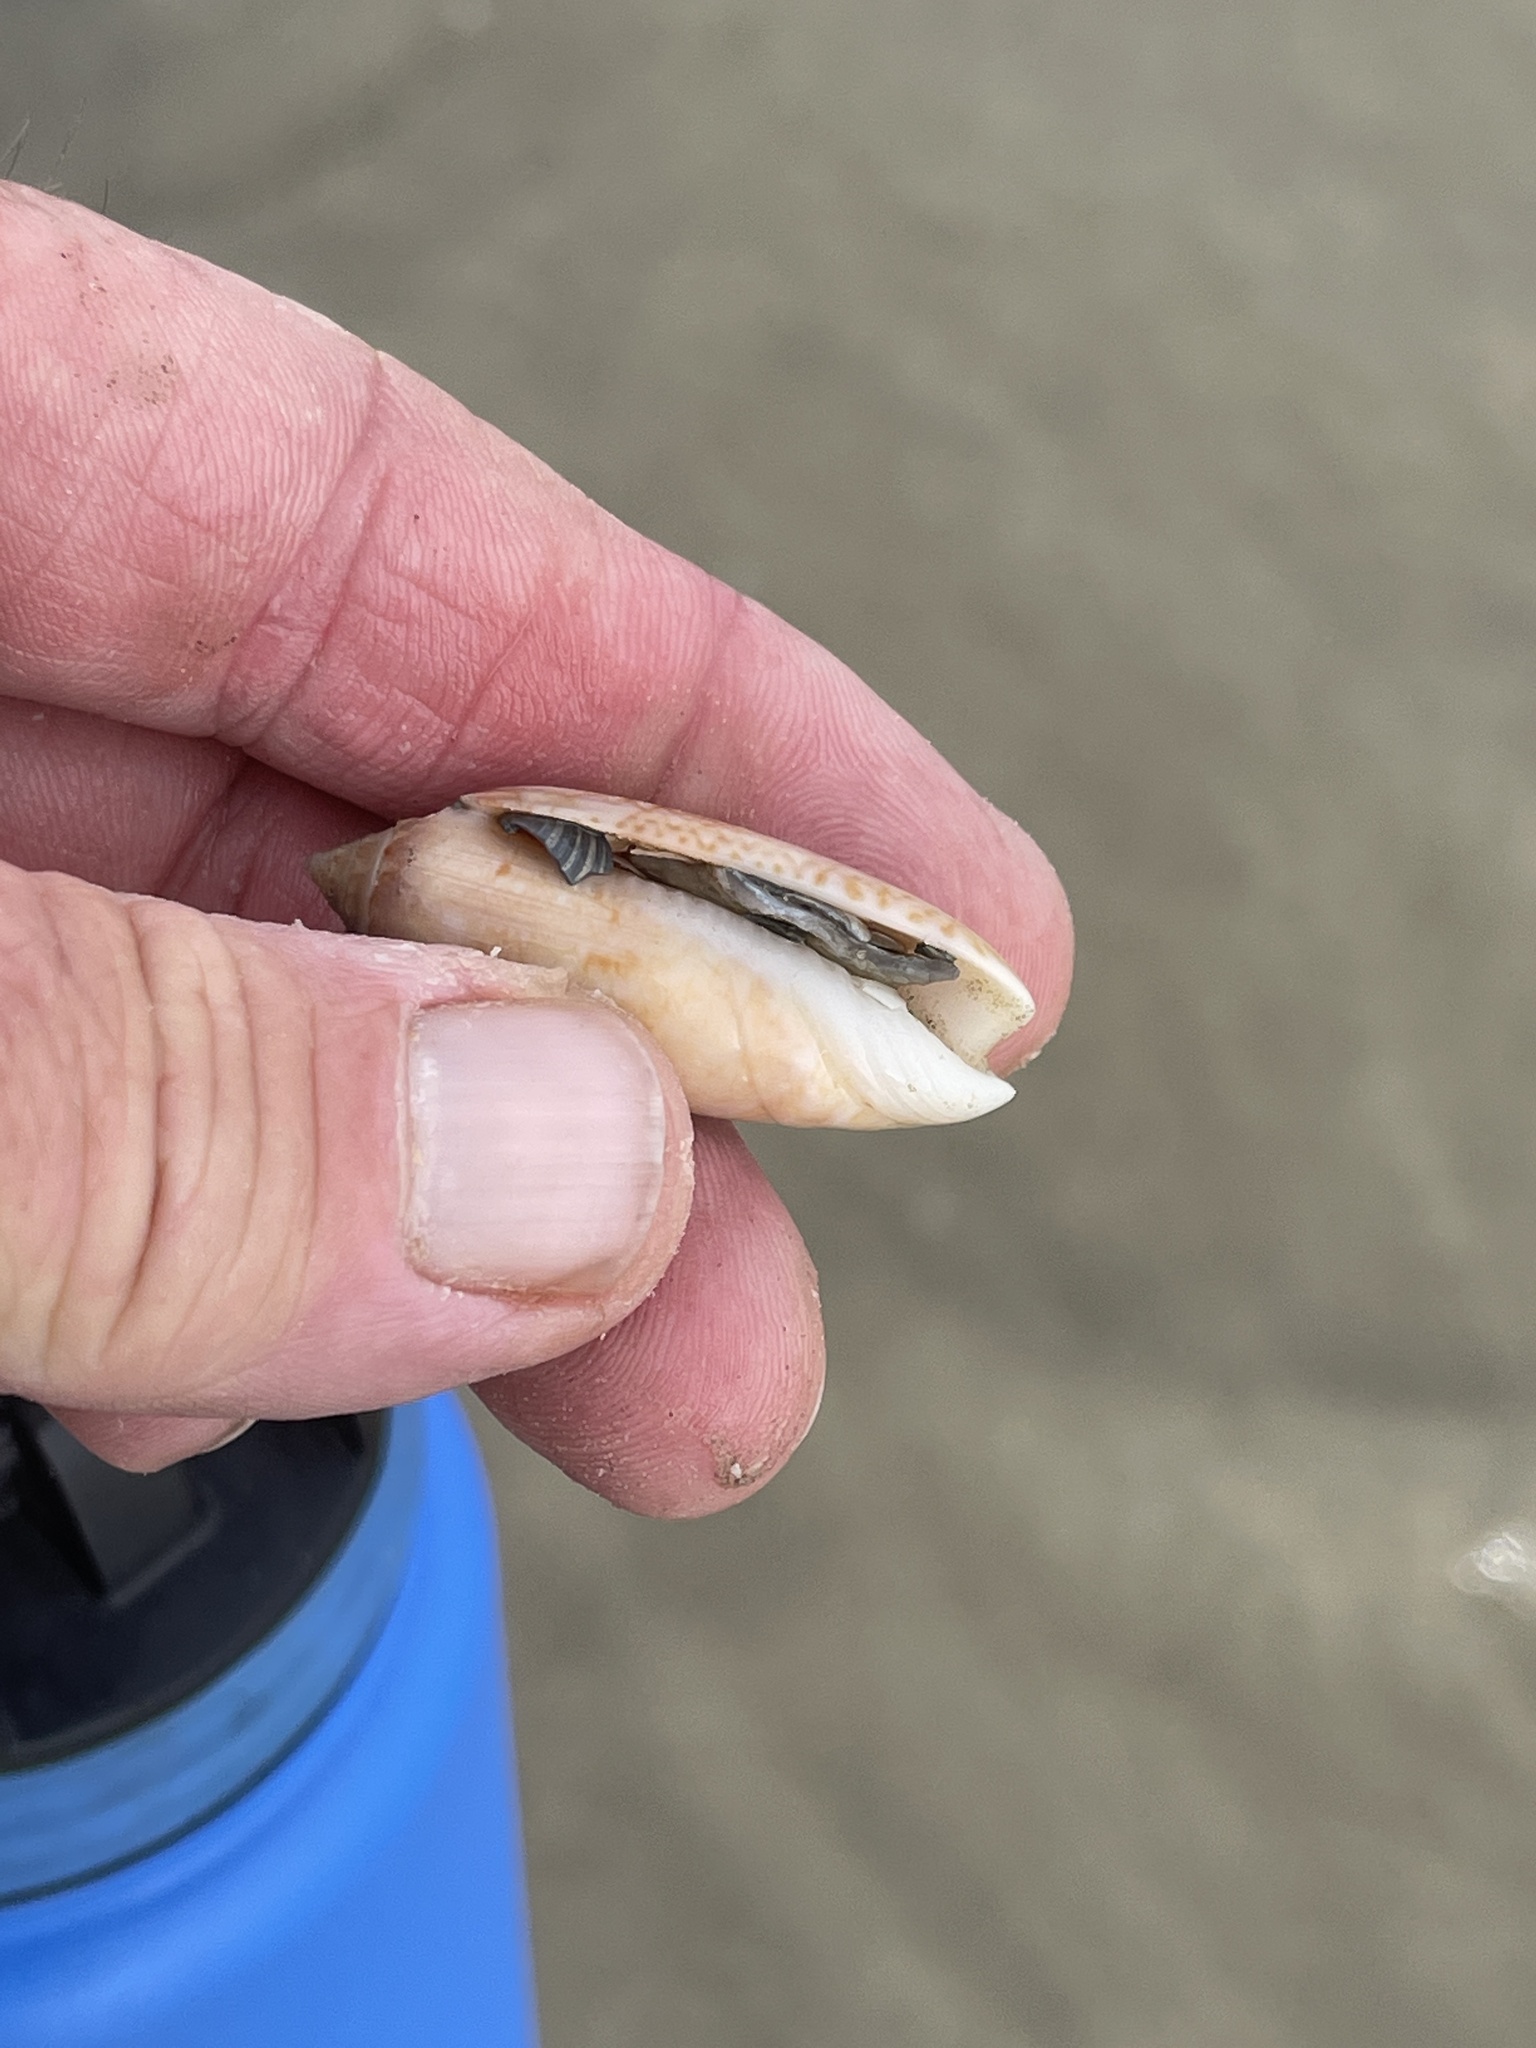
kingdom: Animalia
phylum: Mollusca
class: Gastropoda
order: Neogastropoda
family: Olividae
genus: Oliva
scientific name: Oliva sayana
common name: Lettered olive
